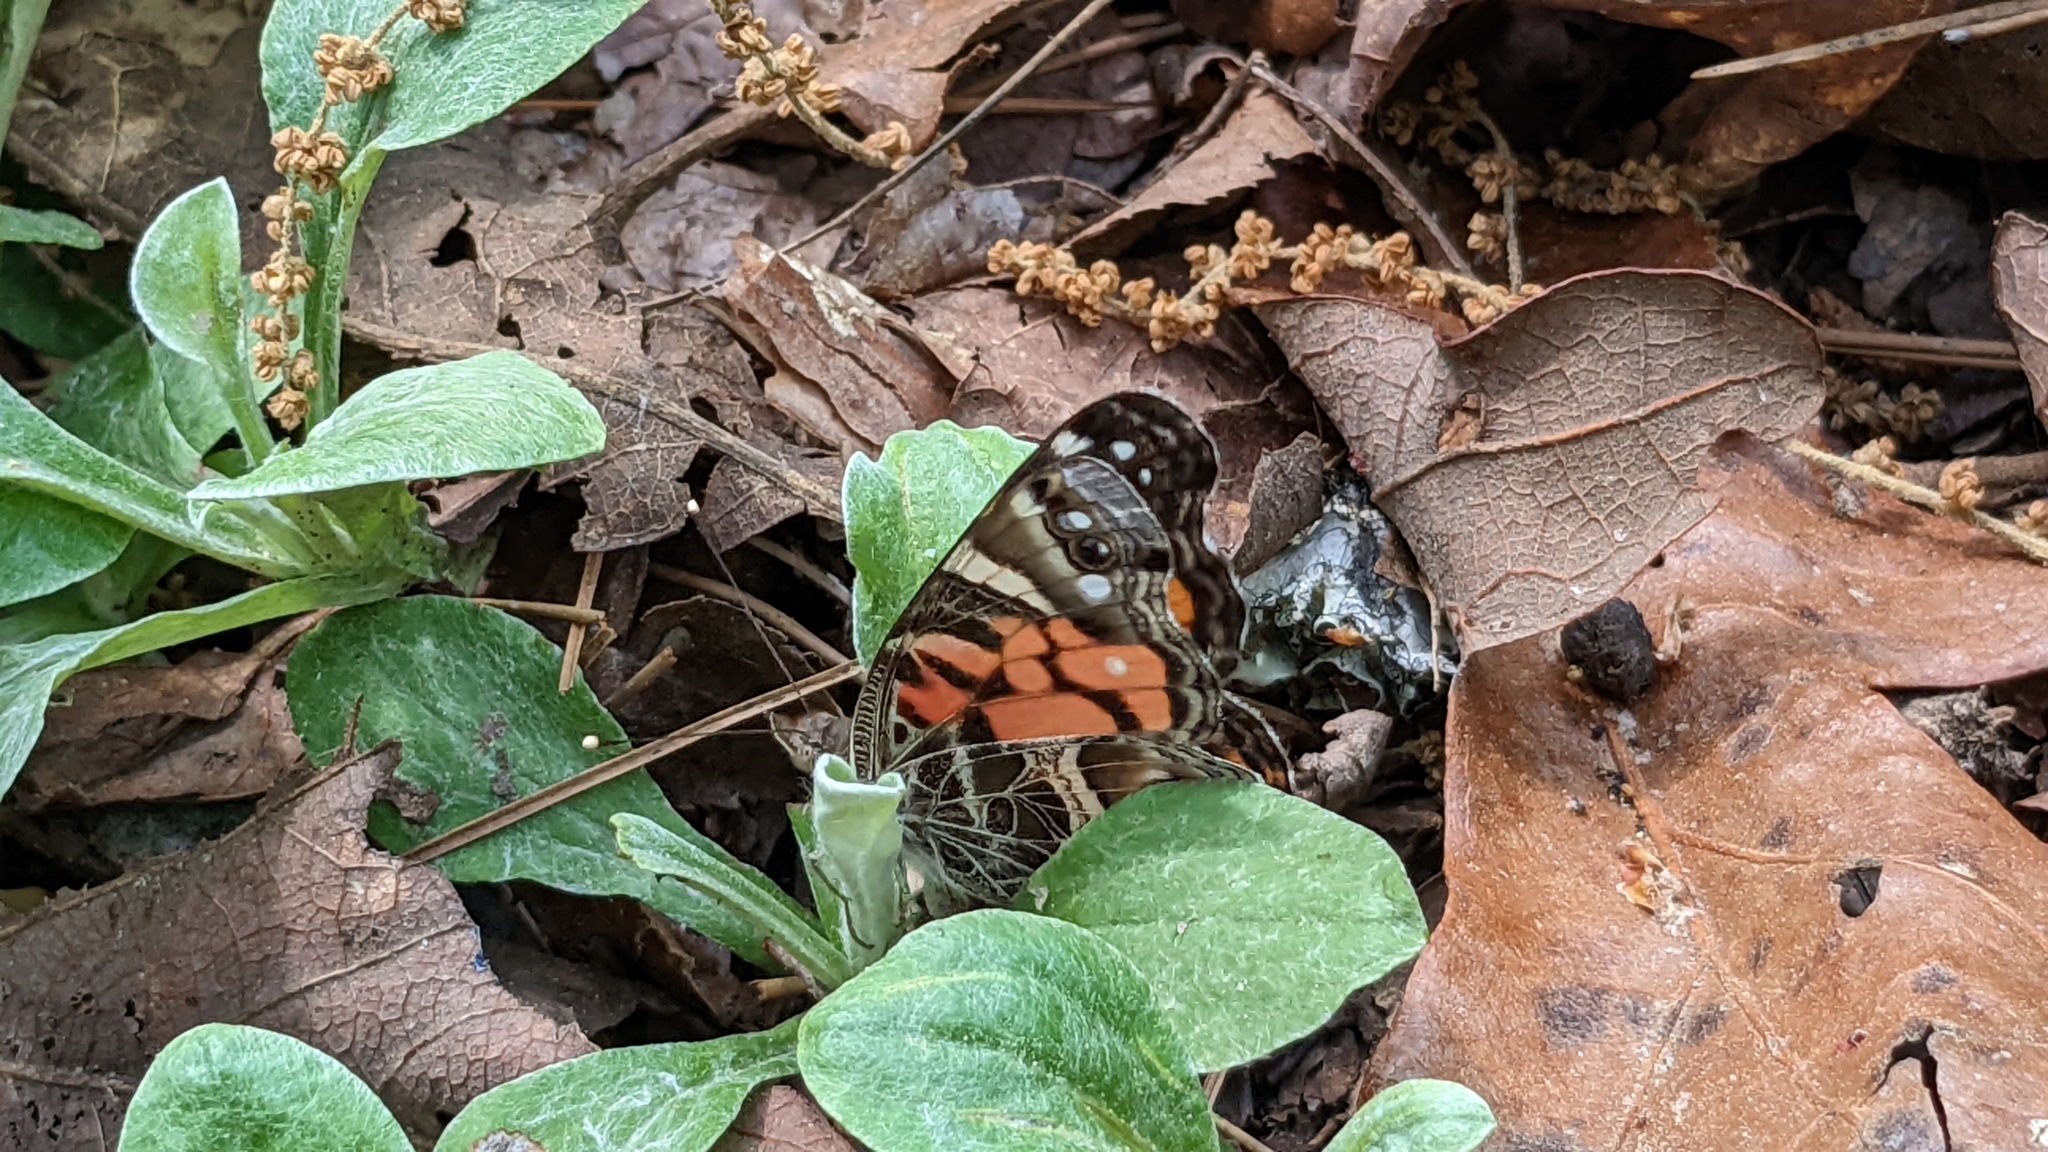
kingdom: Animalia
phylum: Arthropoda
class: Insecta
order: Lepidoptera
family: Nymphalidae
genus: Vanessa
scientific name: Vanessa virginiensis
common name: American lady
